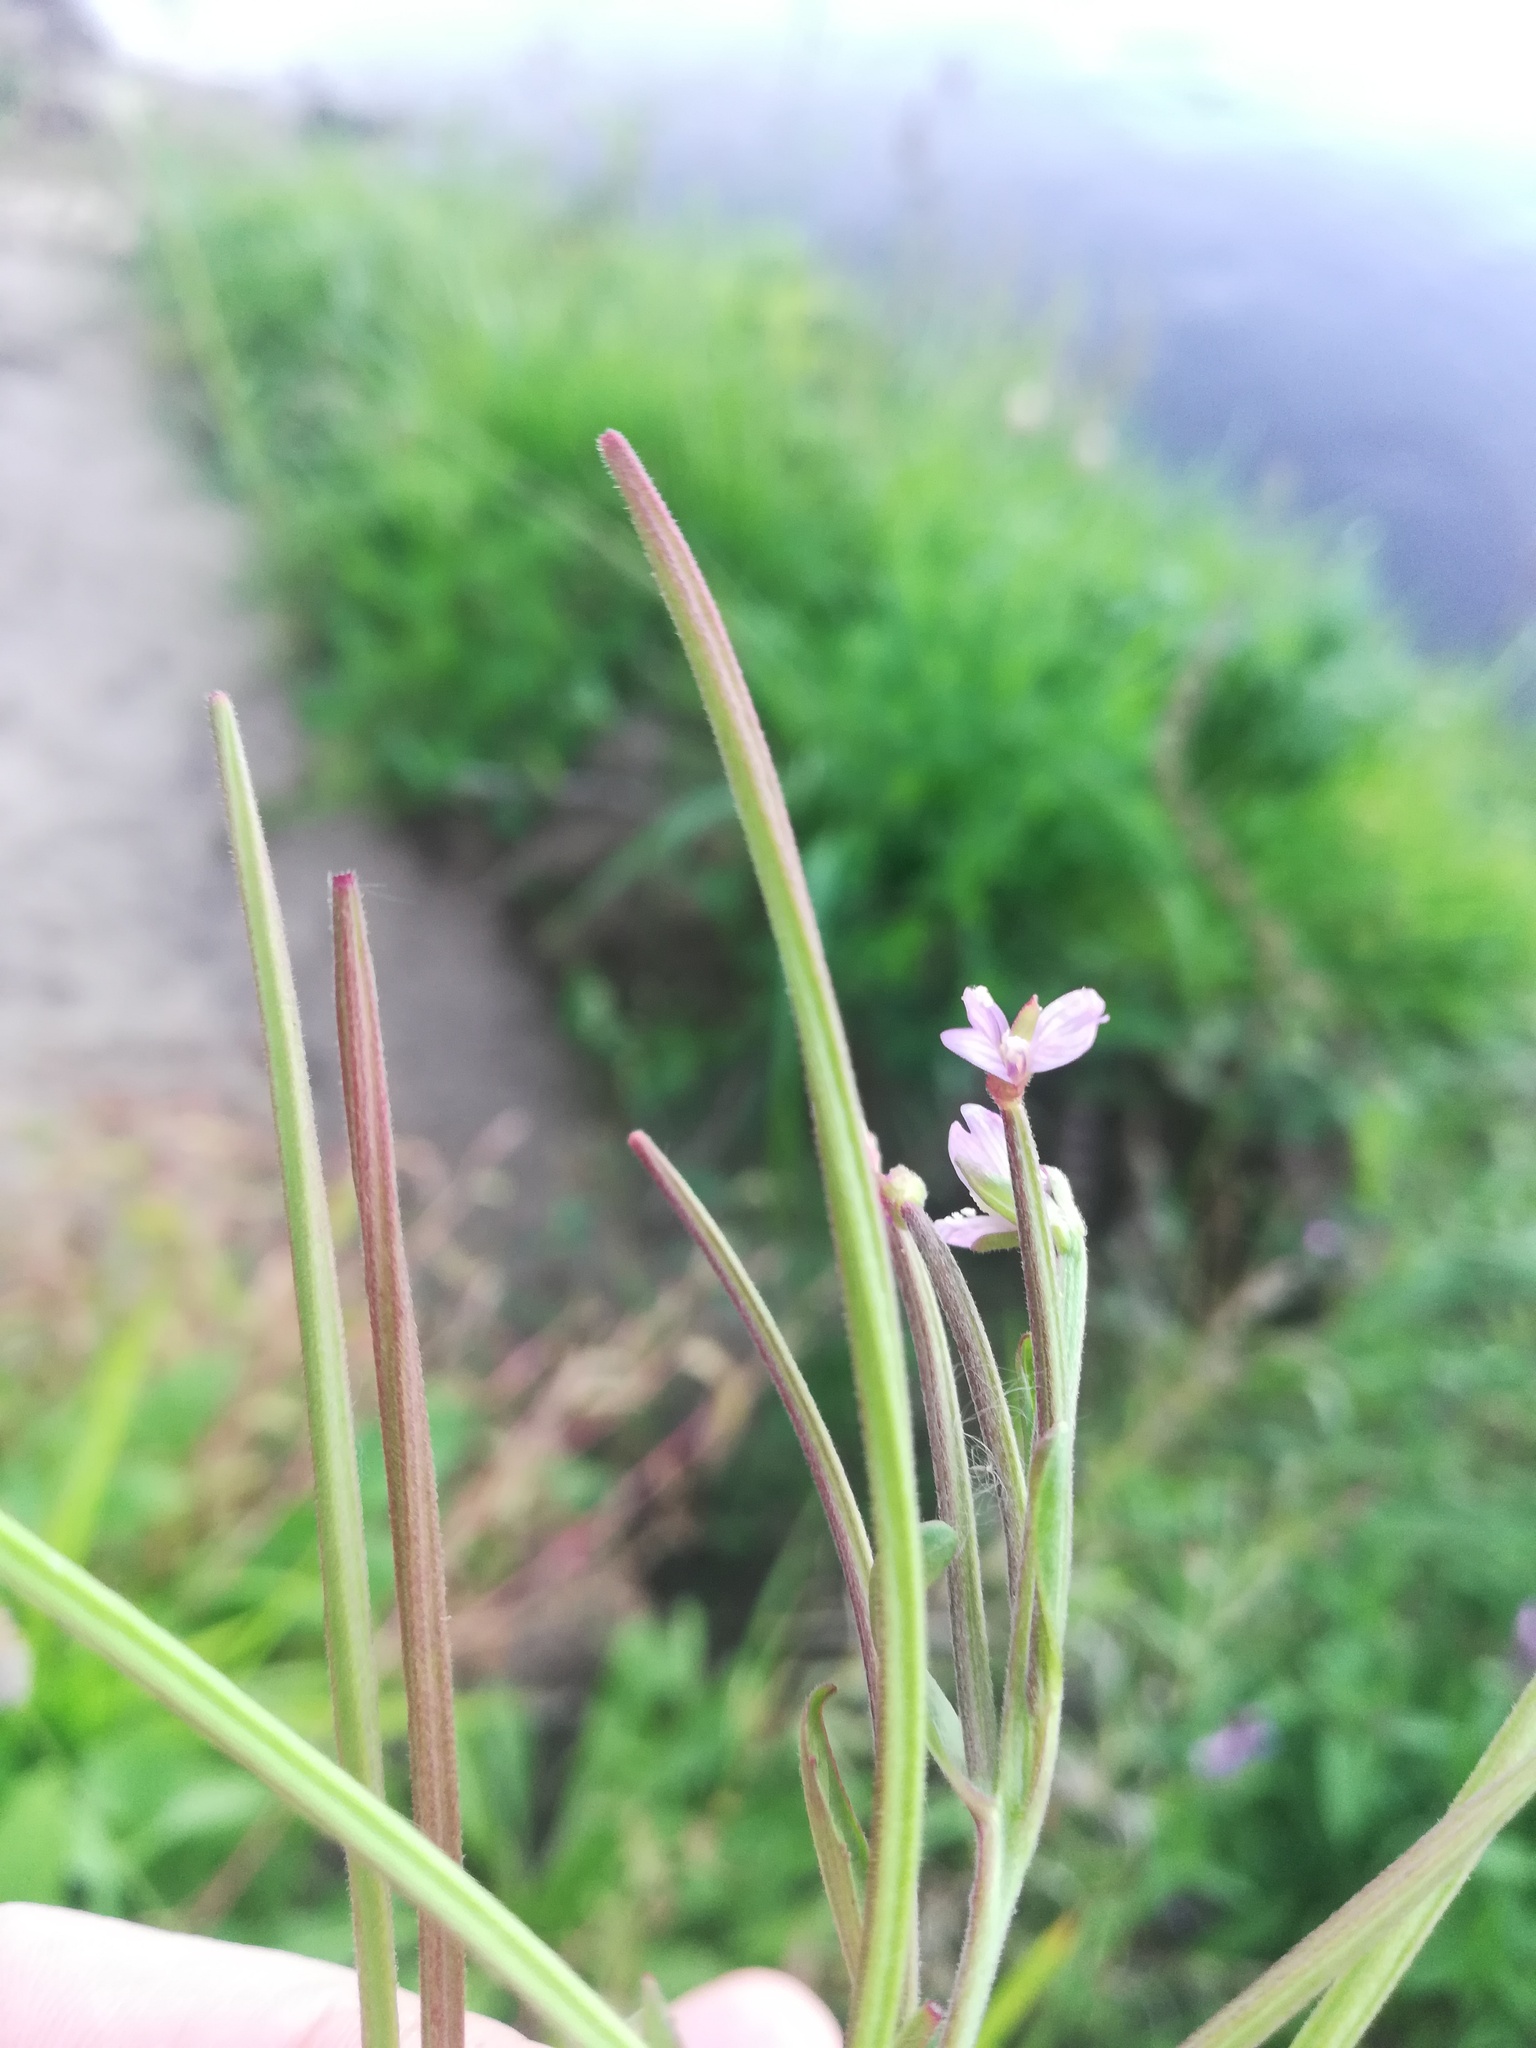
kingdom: Plantae
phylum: Tracheophyta
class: Magnoliopsida
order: Myrtales
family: Onagraceae
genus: Epilobium
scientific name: Epilobium ciliatum
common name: American willowherb
